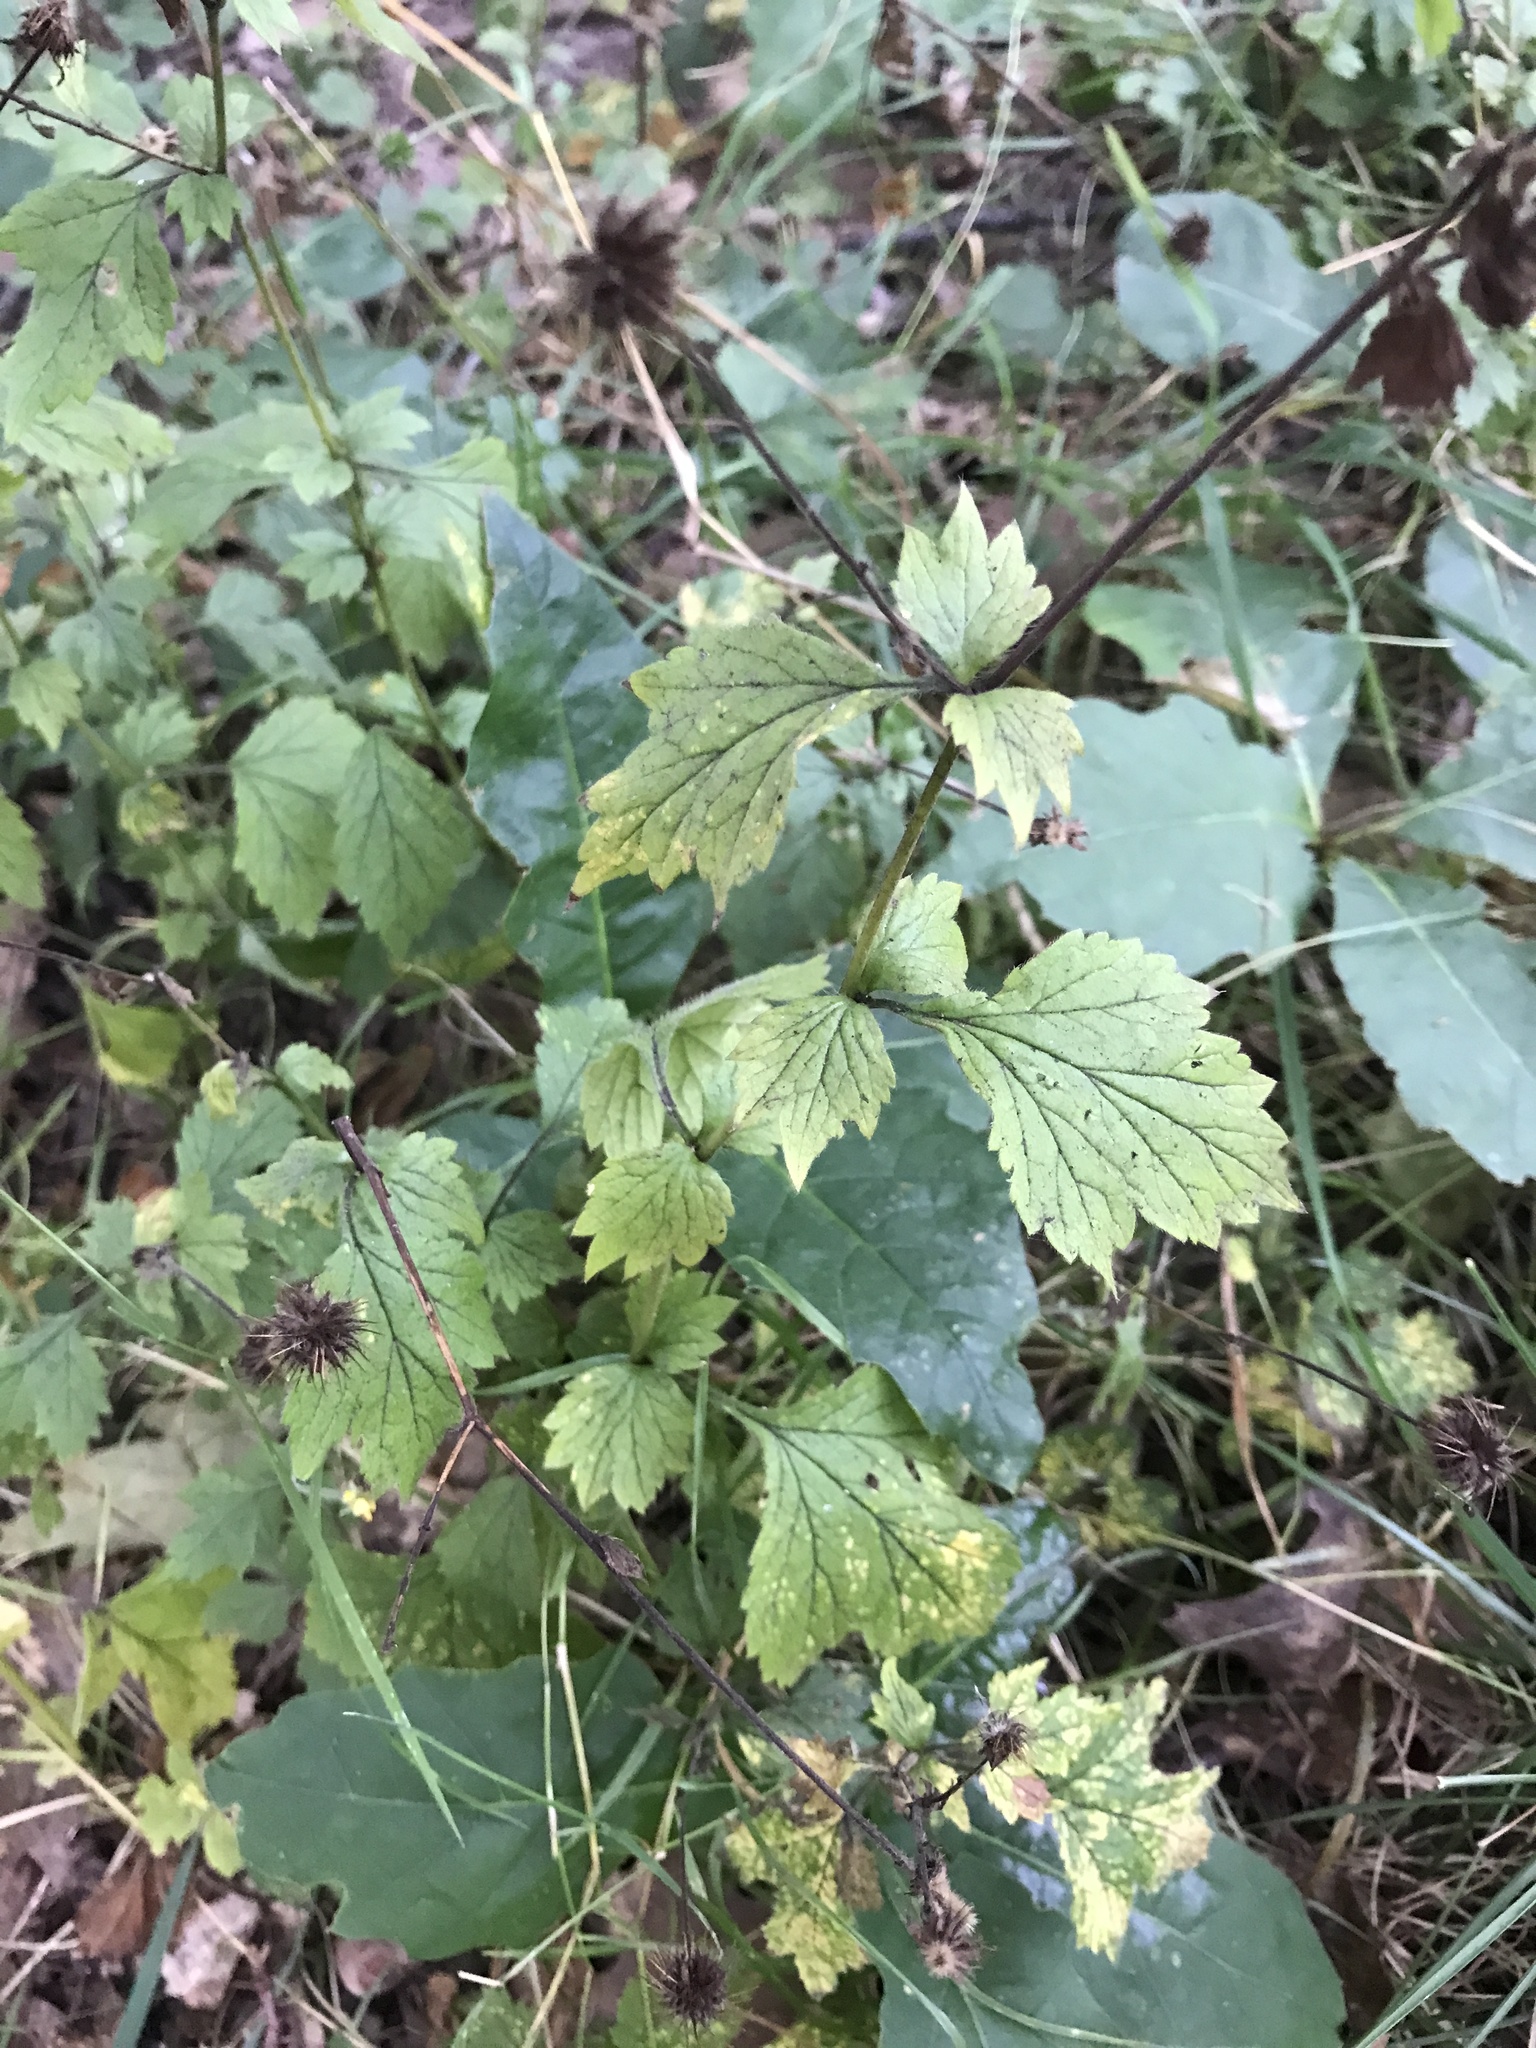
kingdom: Plantae
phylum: Tracheophyta
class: Magnoliopsida
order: Rosales
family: Rosaceae
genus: Geum
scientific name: Geum urbanum
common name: Wood avens
